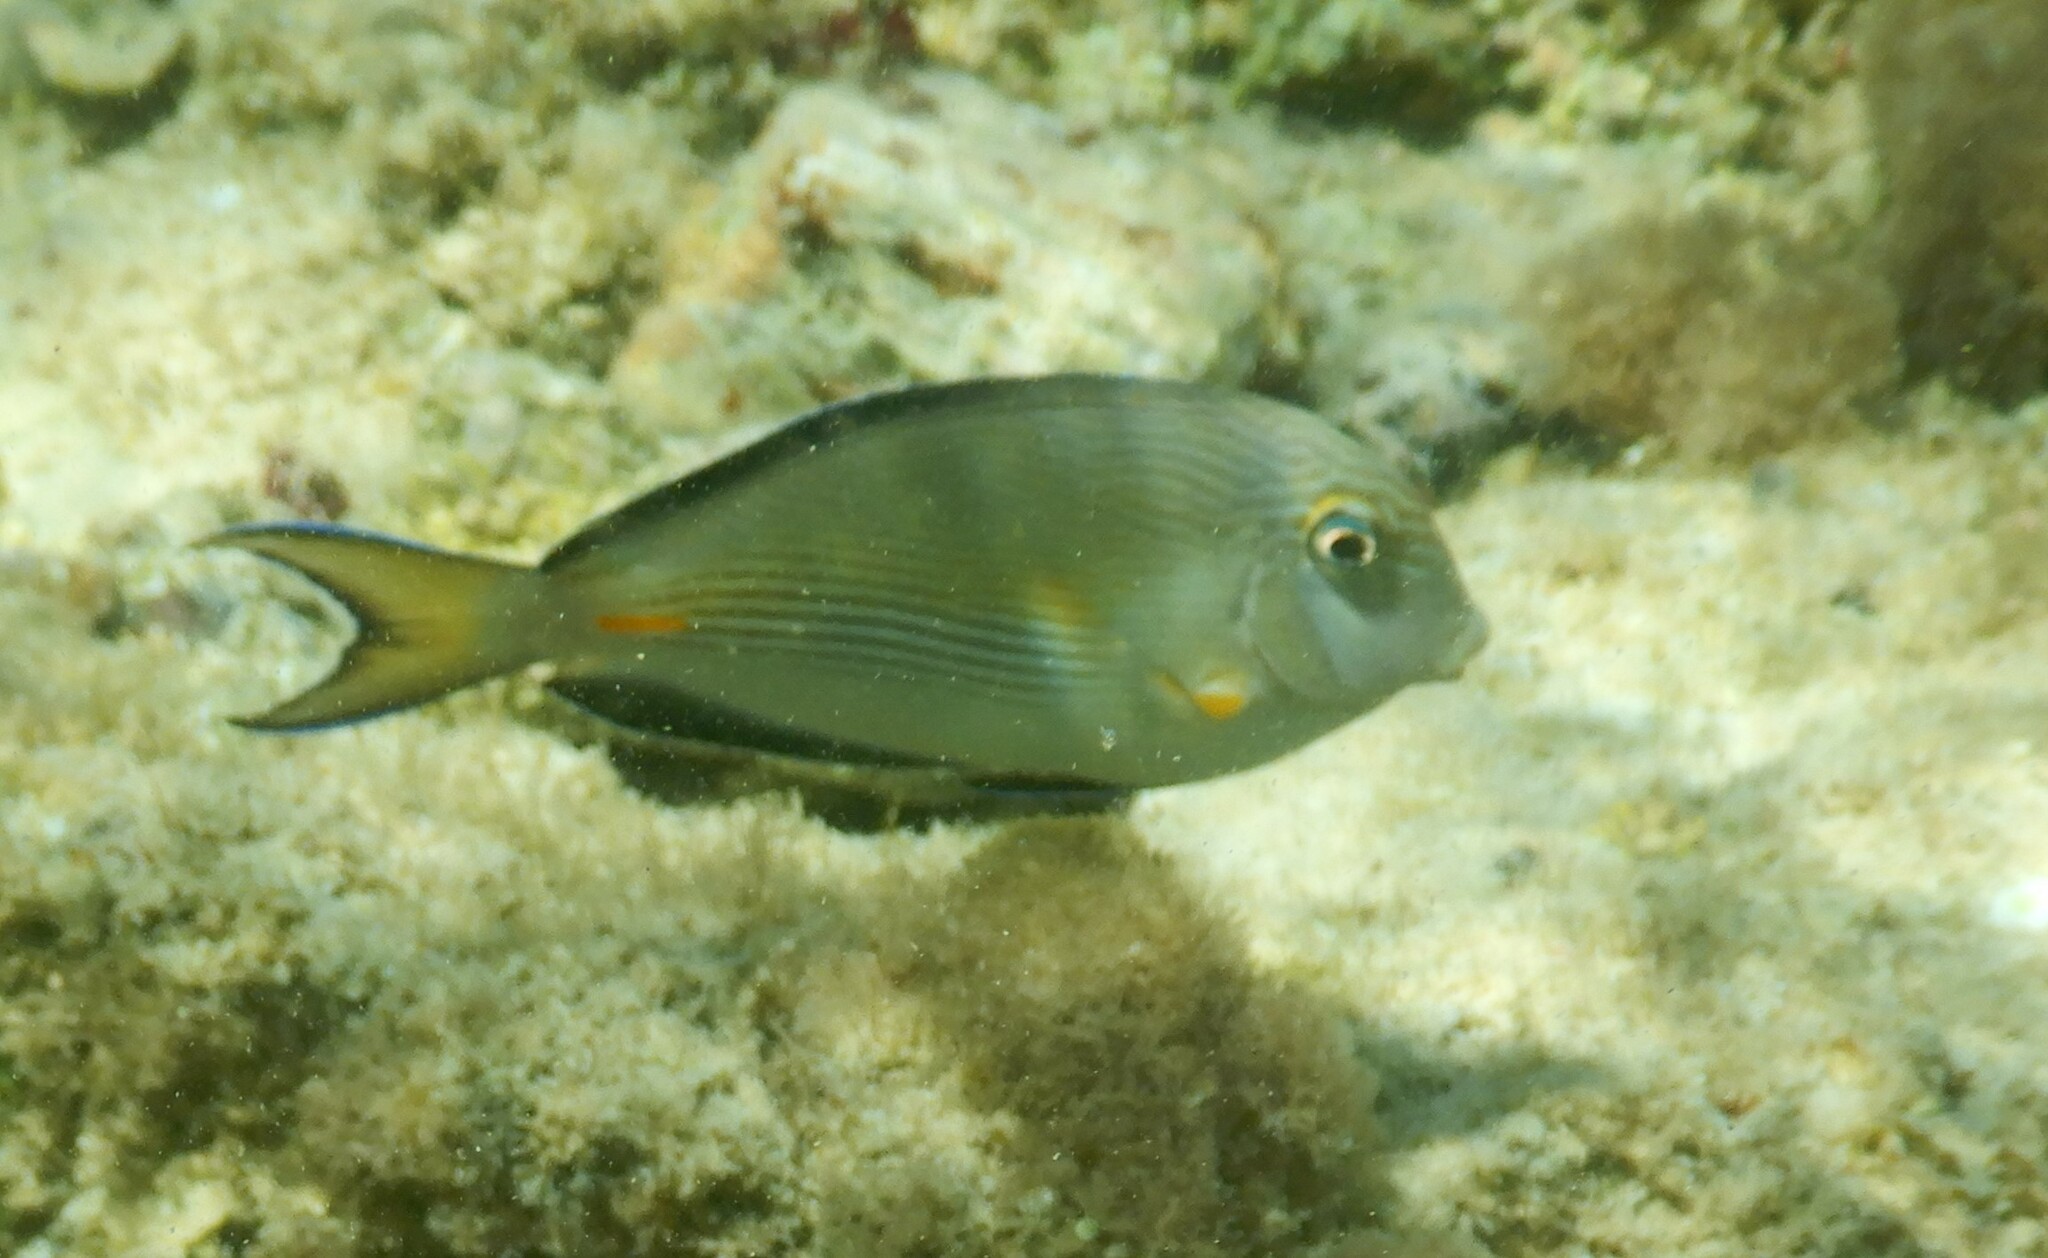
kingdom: Animalia
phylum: Chordata
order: Perciformes
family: Acanthuridae
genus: Acanthurus
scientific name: Acanthurus sohal
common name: Red sea surgeonfish
